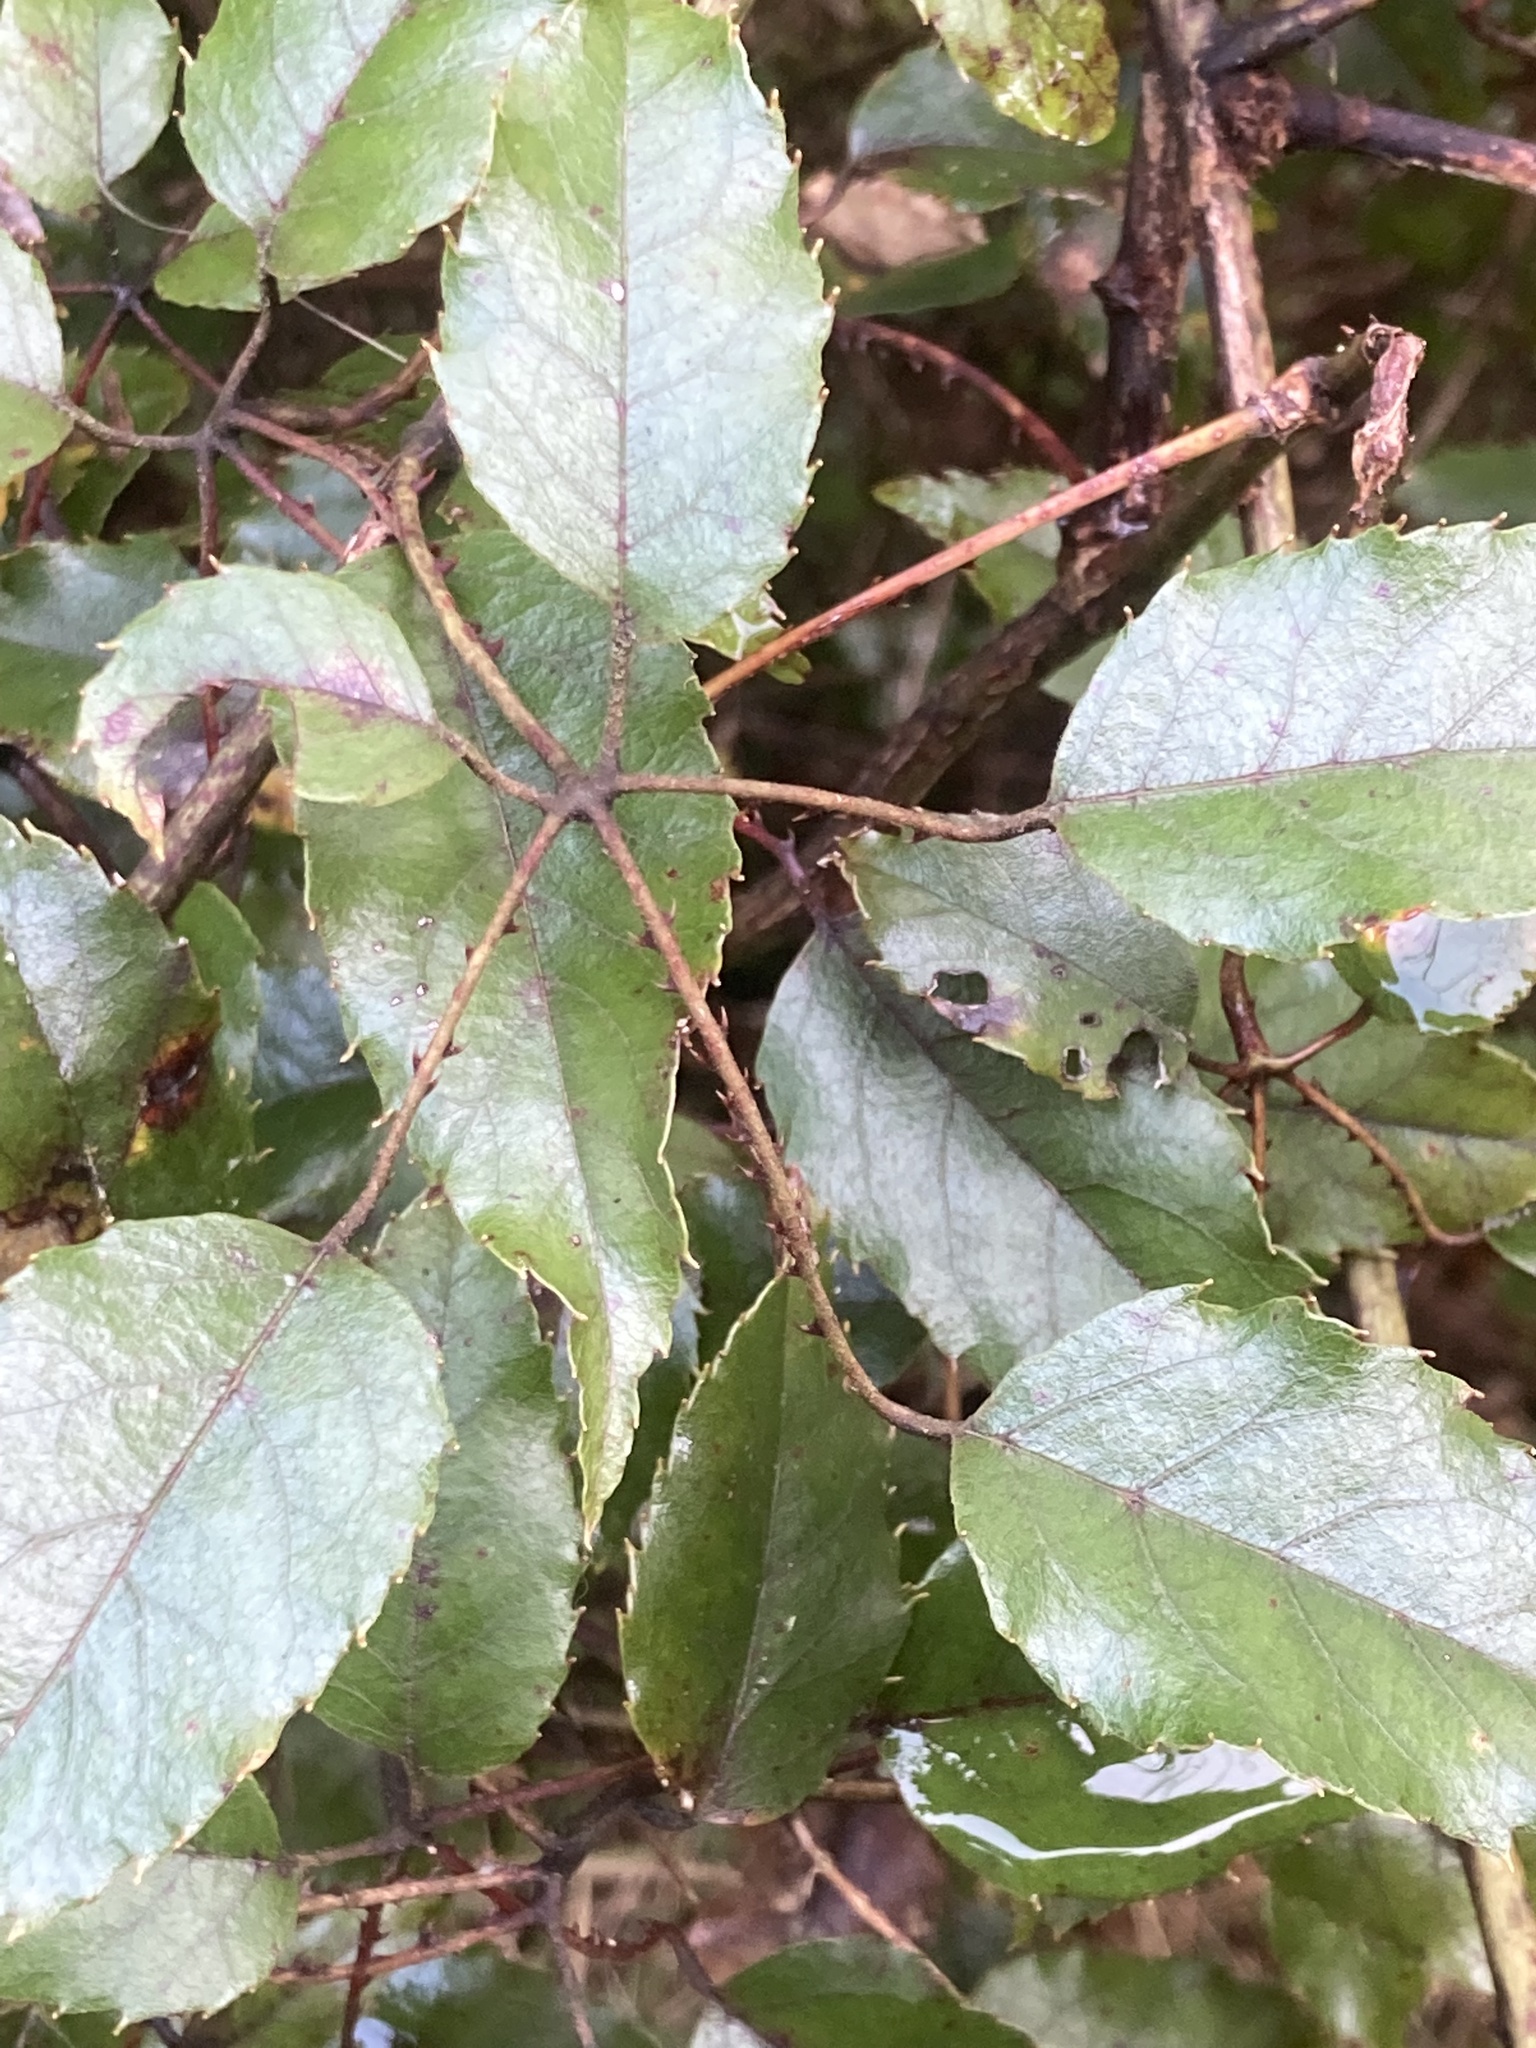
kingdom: Plantae
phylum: Tracheophyta
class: Magnoliopsida
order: Rosales
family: Rosaceae
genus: Rubus
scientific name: Rubus cissoides
